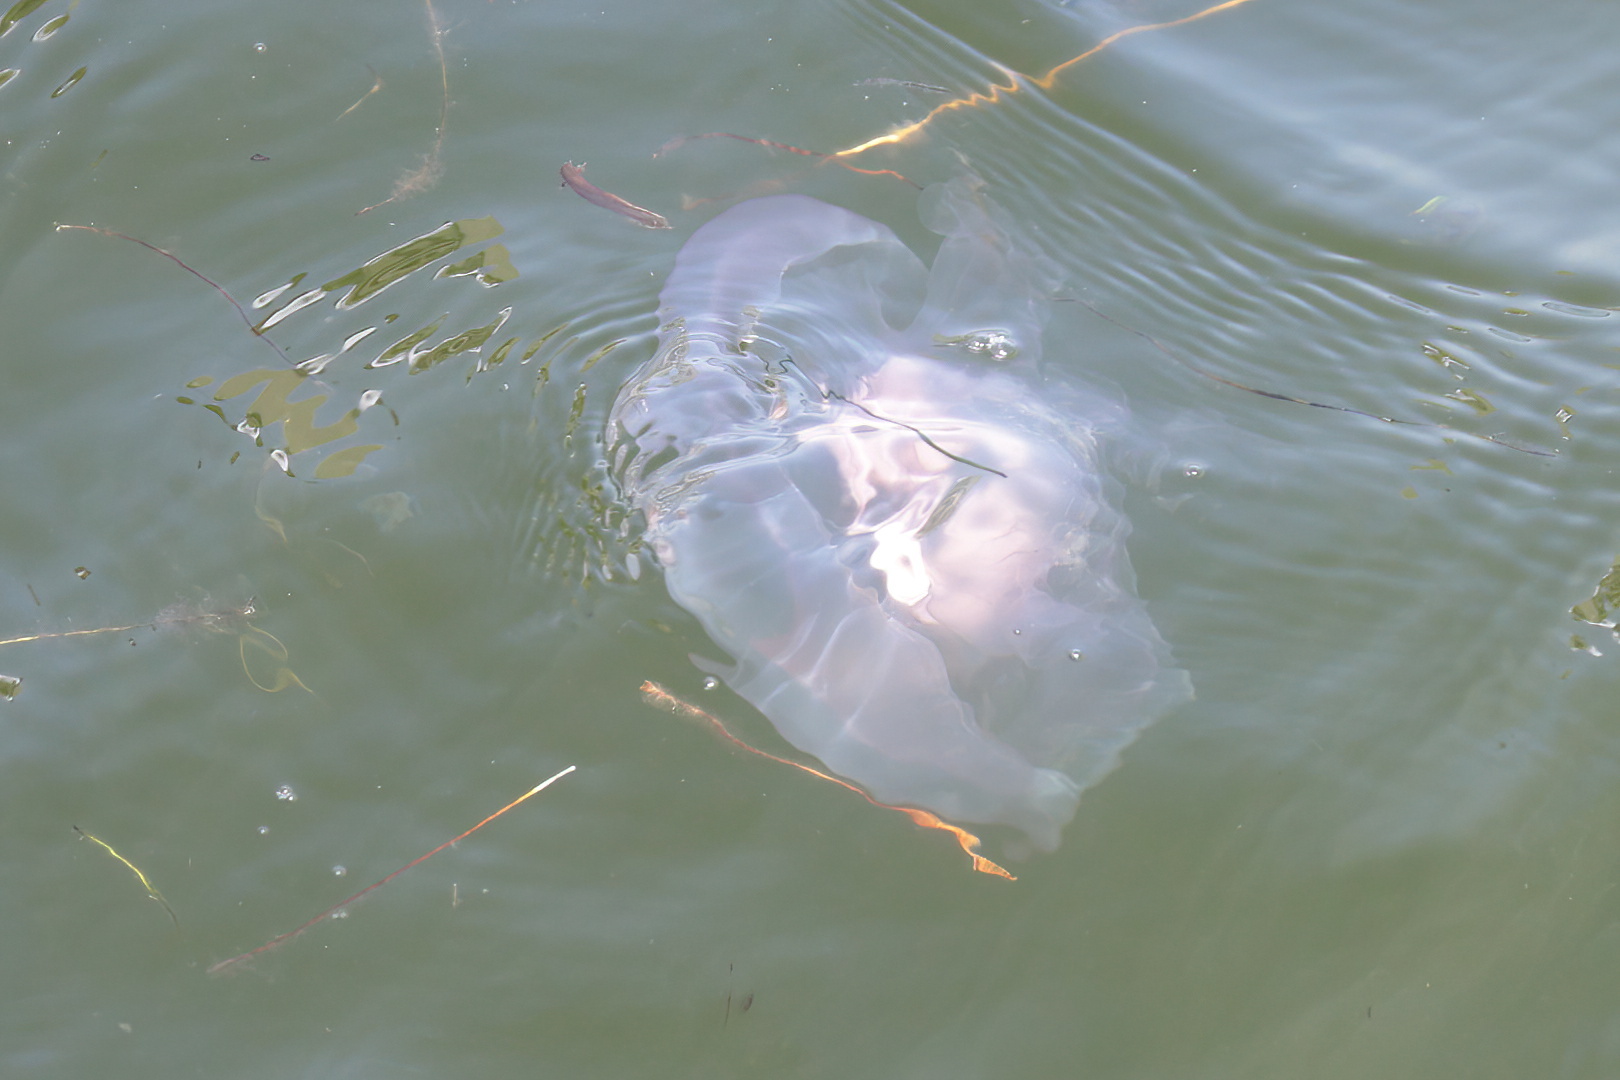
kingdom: Animalia
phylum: Cnidaria
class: Scyphozoa
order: Semaeostomeae
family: Ulmaridae
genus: Aurelia
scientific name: Aurelia marginalis
